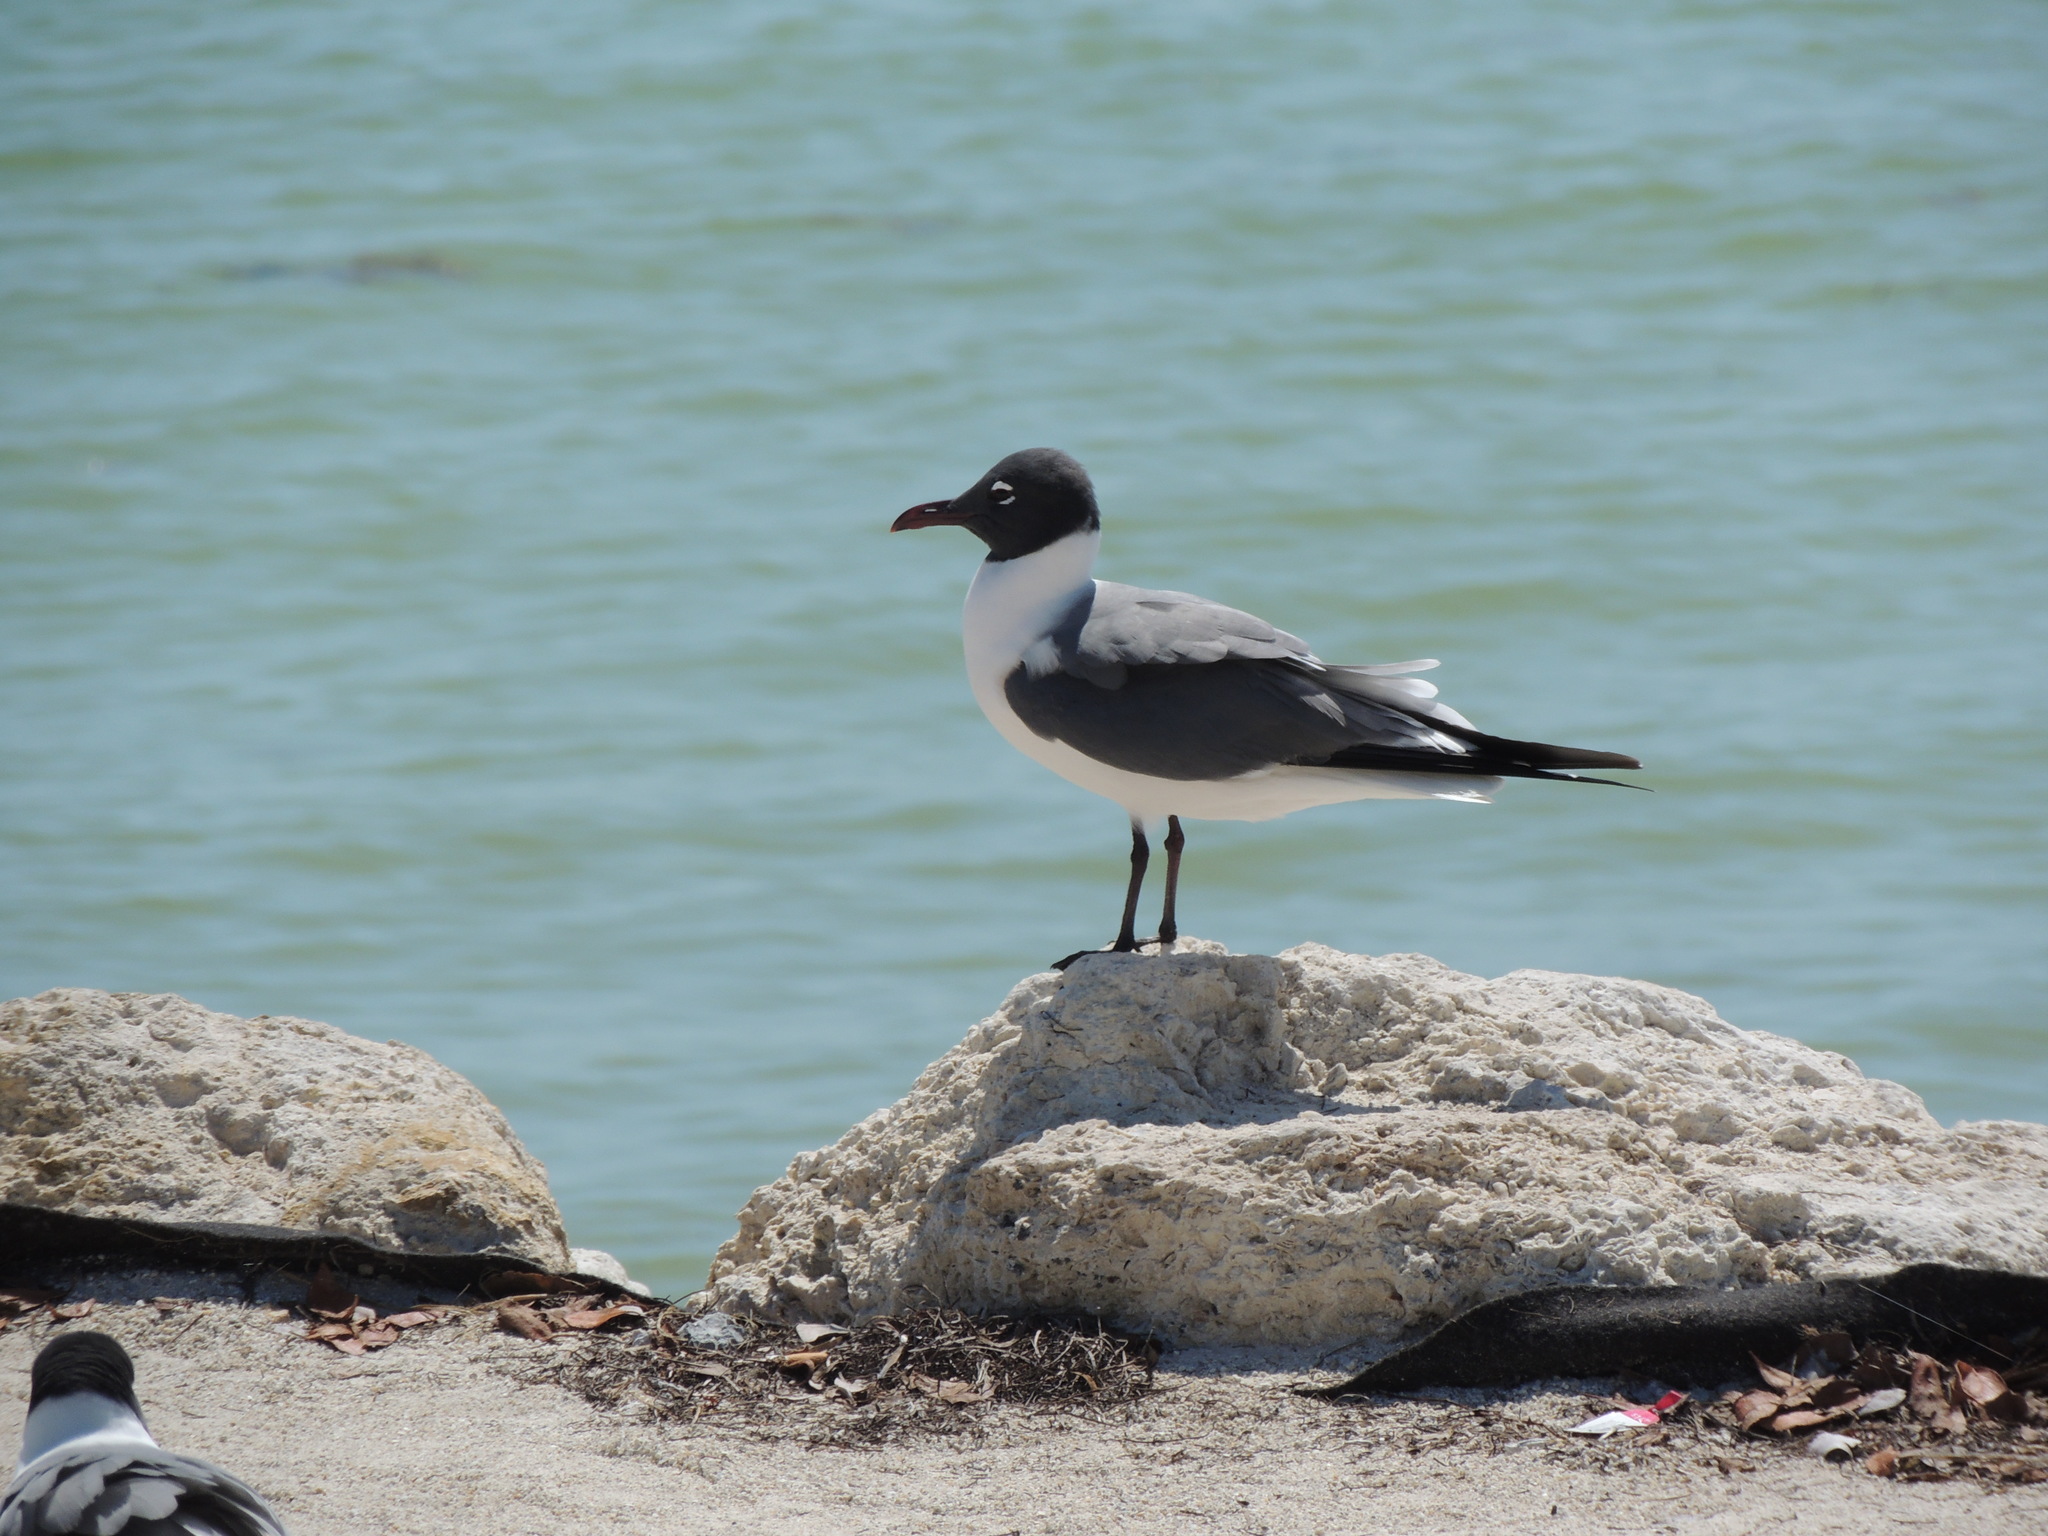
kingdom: Animalia
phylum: Chordata
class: Aves
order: Charadriiformes
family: Laridae
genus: Leucophaeus
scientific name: Leucophaeus atricilla
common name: Laughing gull
